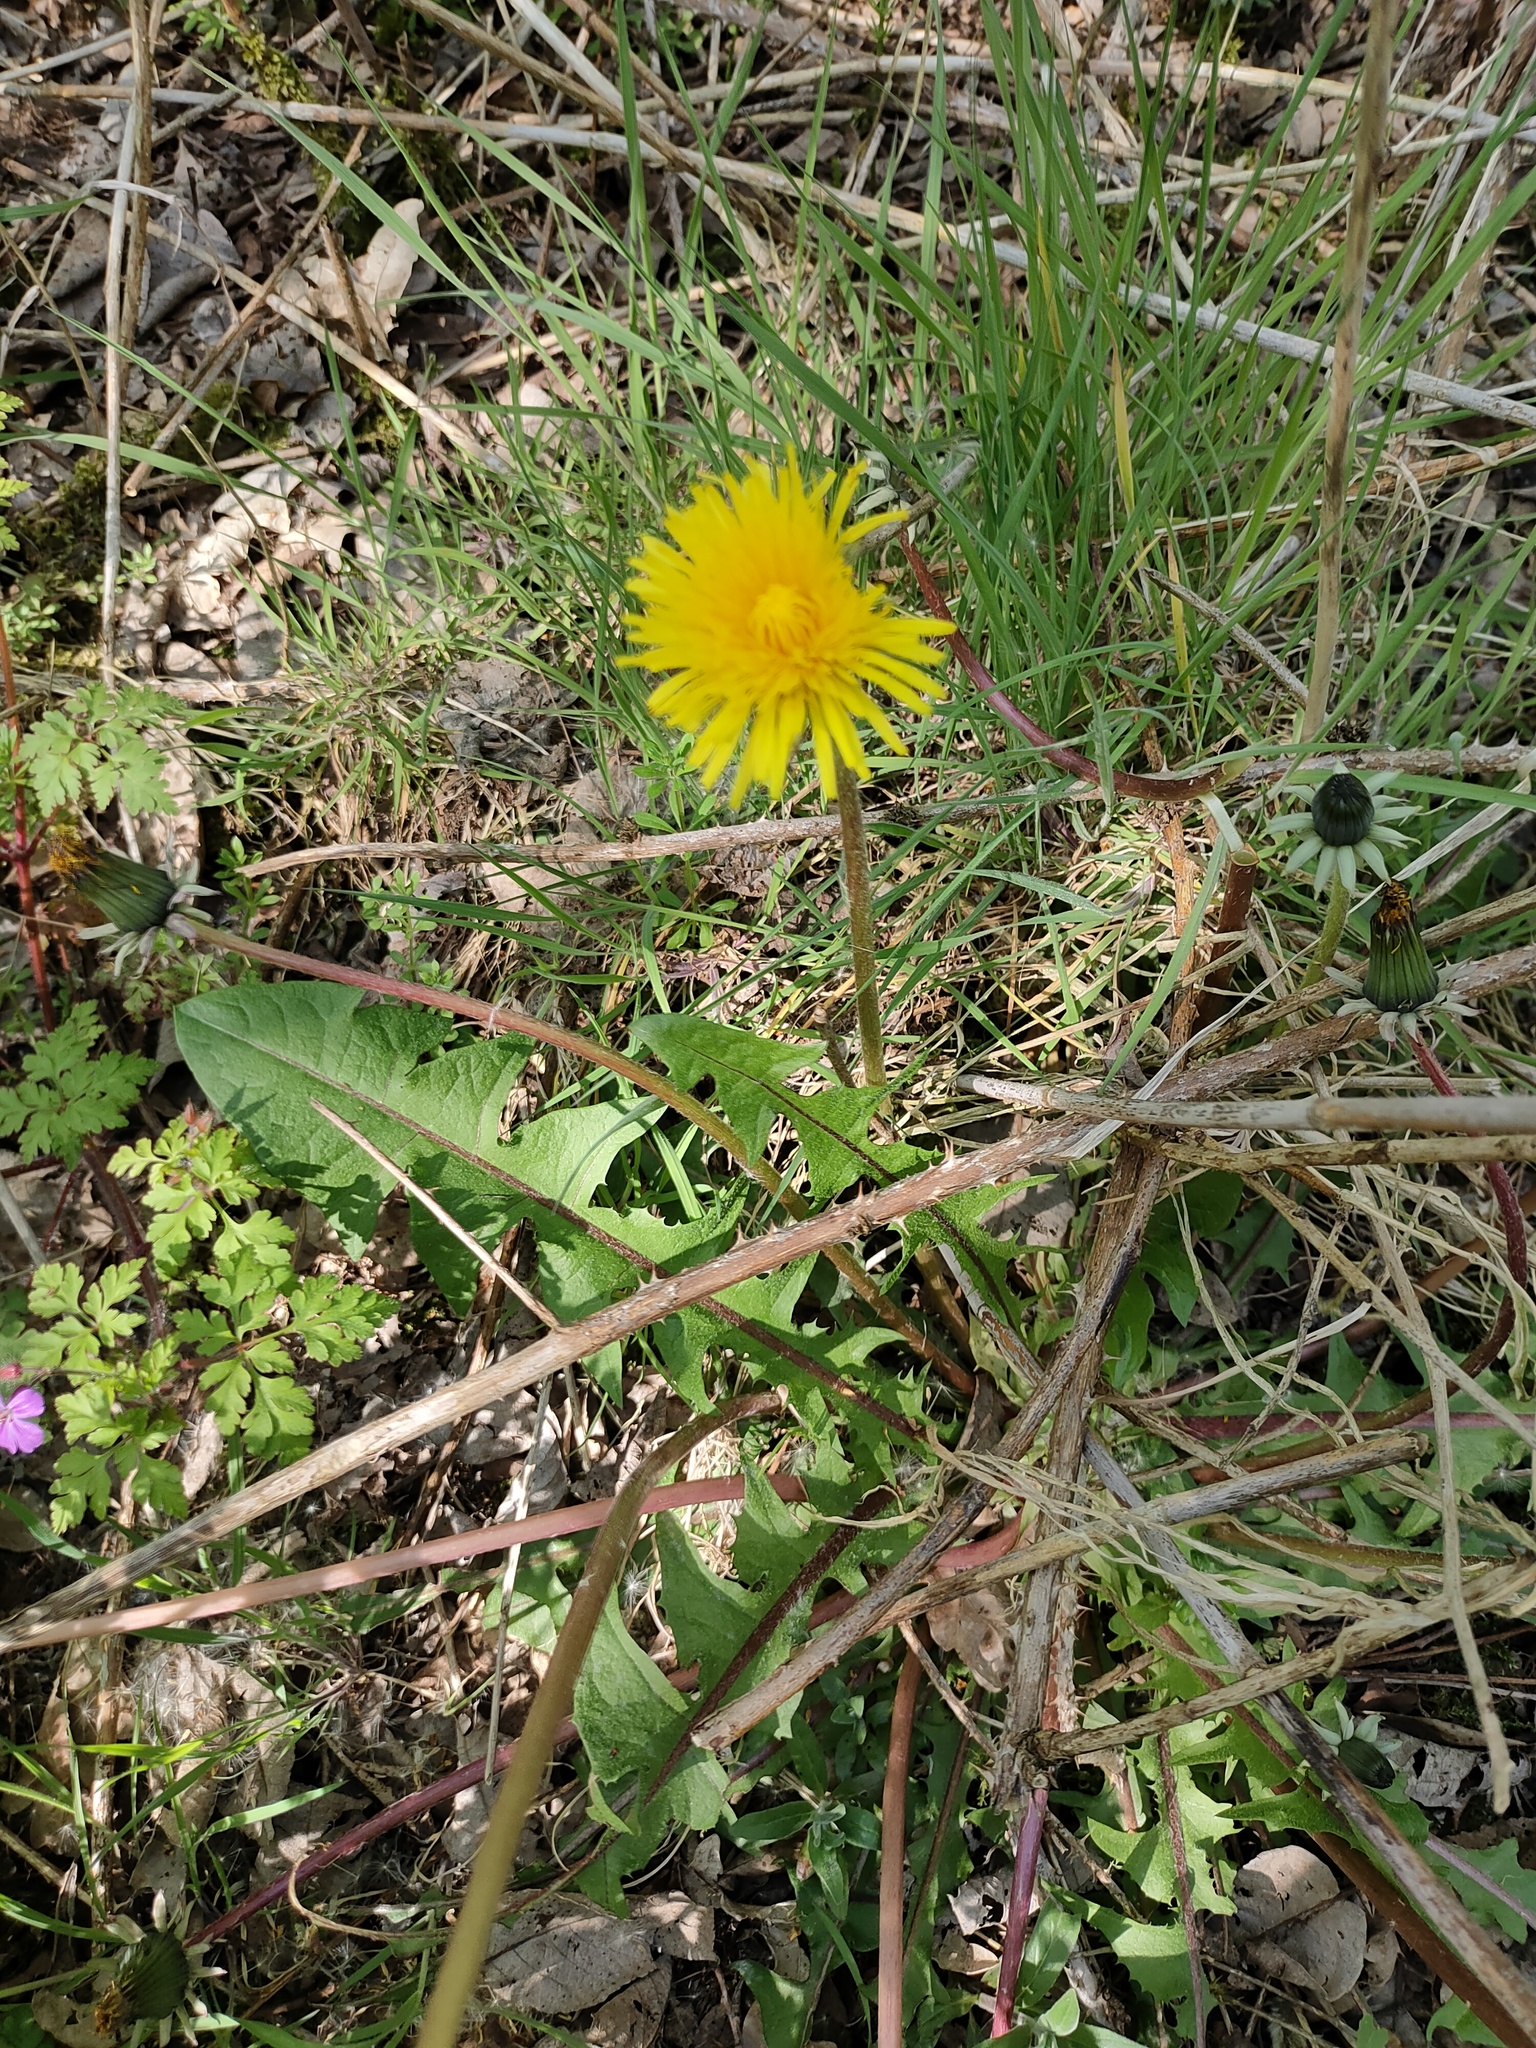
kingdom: Plantae
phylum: Tracheophyta
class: Magnoliopsida
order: Asterales
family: Asteraceae
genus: Taraxacum
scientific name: Taraxacum officinale
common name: Common dandelion
